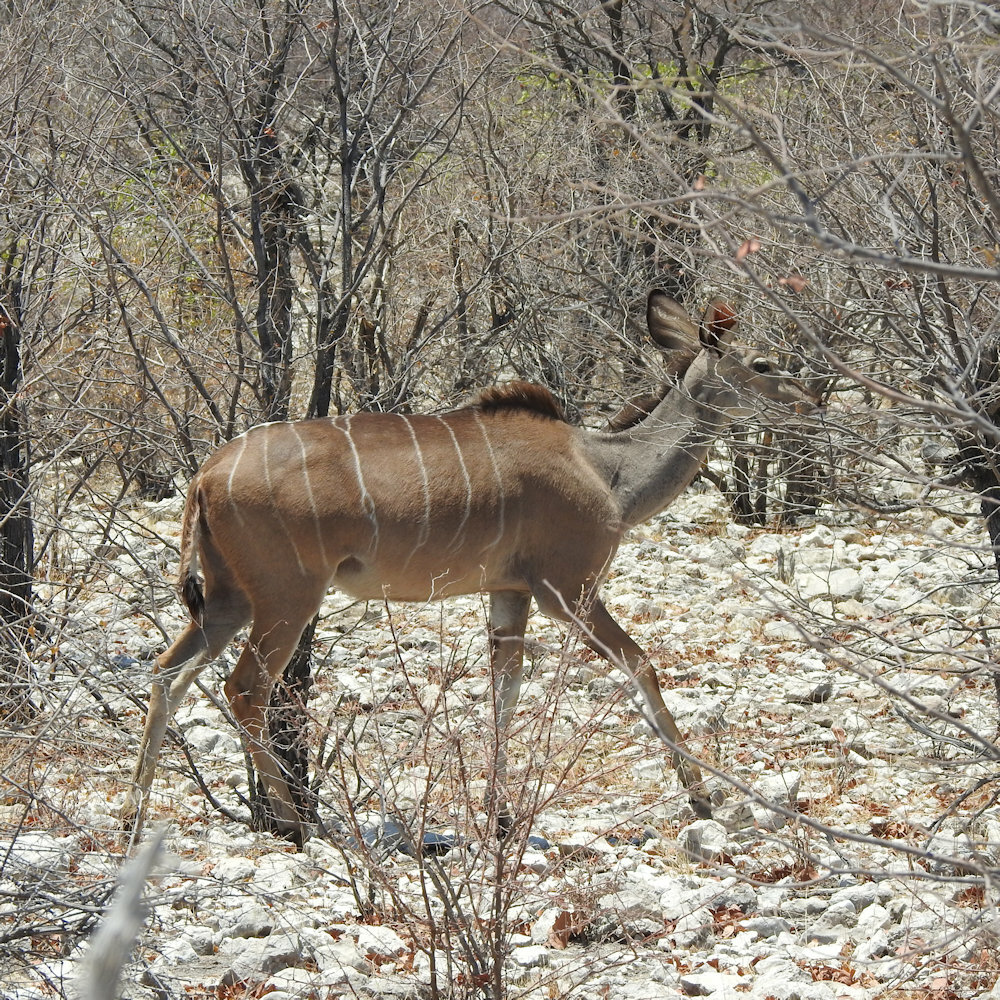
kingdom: Animalia
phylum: Chordata
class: Mammalia
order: Artiodactyla
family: Bovidae
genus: Tragelaphus
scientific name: Tragelaphus strepsiceros
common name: Greater kudu
